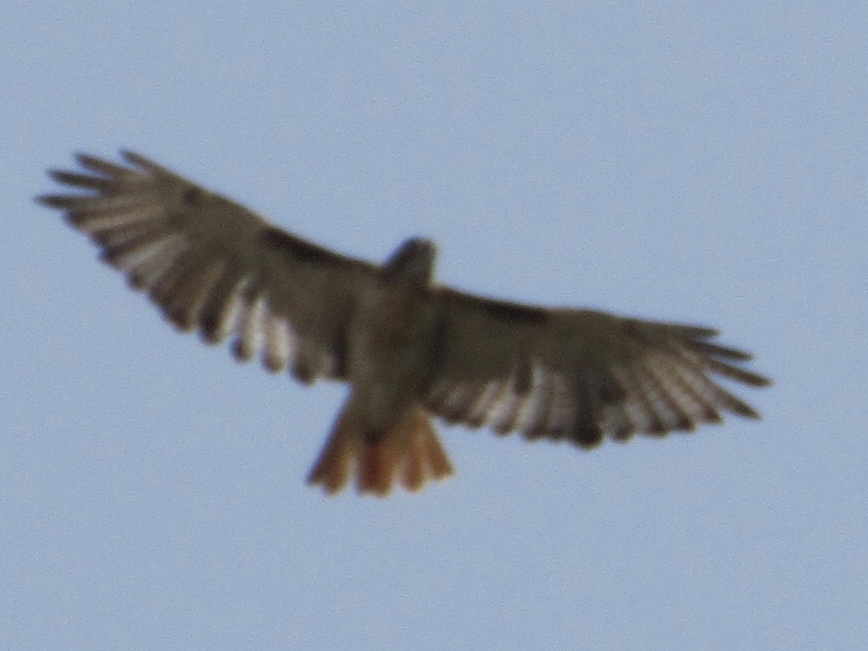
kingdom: Animalia
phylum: Chordata
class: Aves
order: Accipitriformes
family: Accipitridae
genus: Buteo
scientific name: Buteo jamaicensis
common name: Red-tailed hawk
